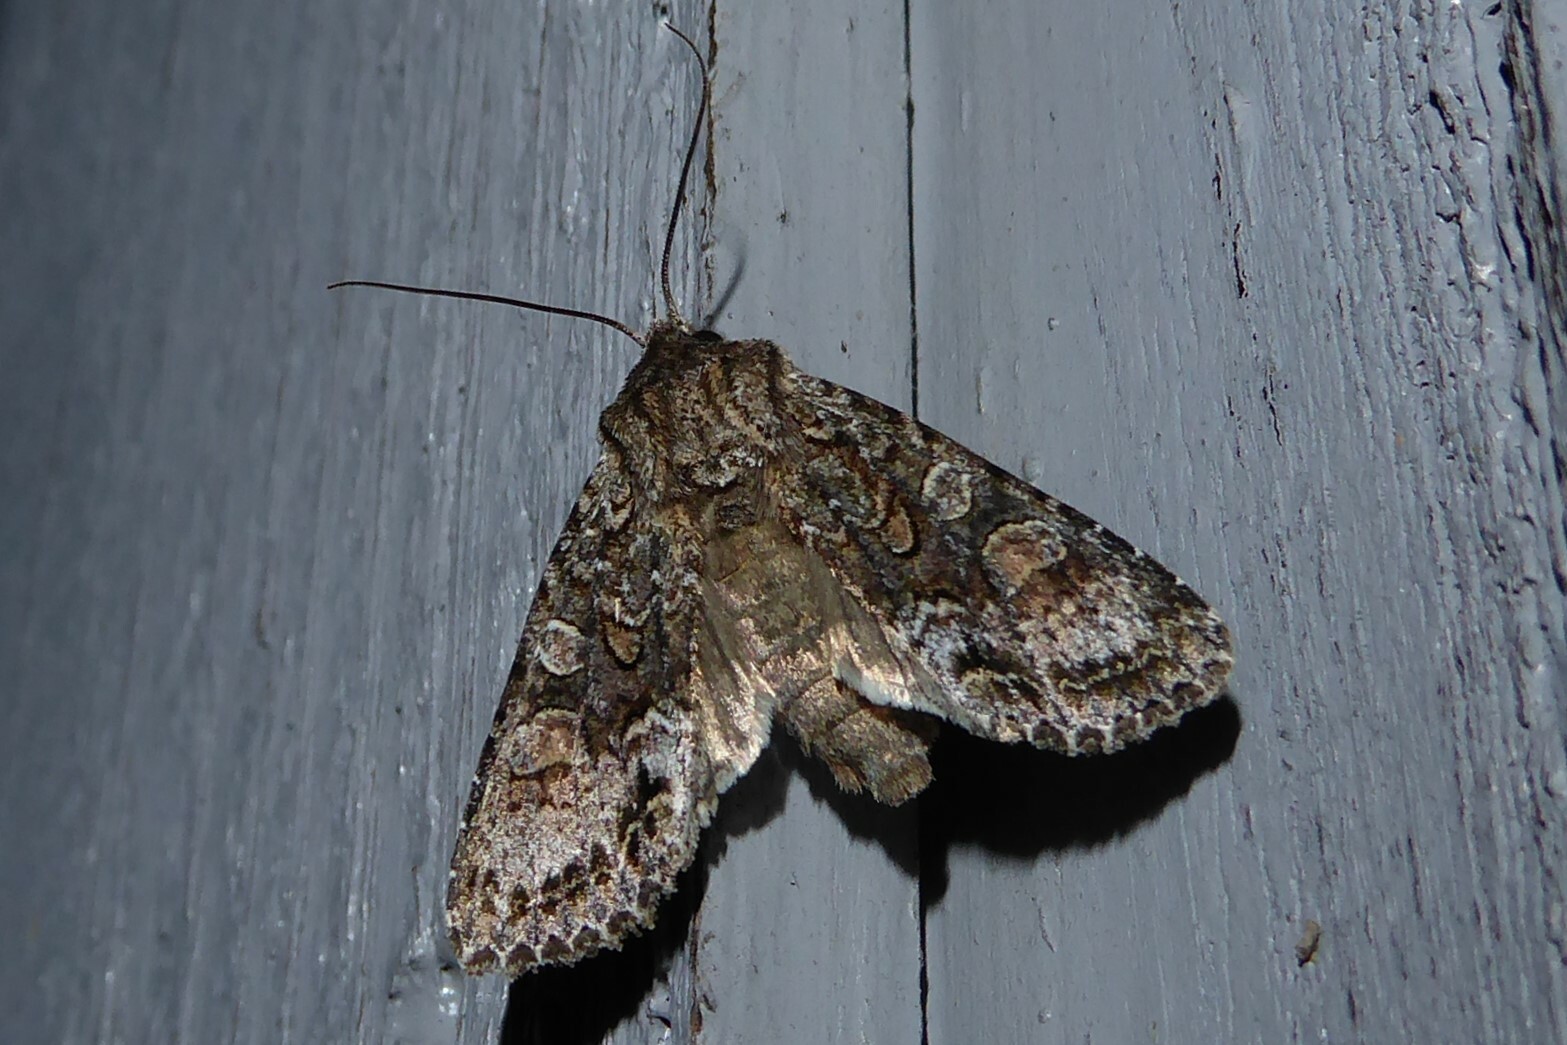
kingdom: Animalia
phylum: Arthropoda
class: Insecta
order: Lepidoptera
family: Noctuidae
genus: Ichneutica
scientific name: Ichneutica mutans
